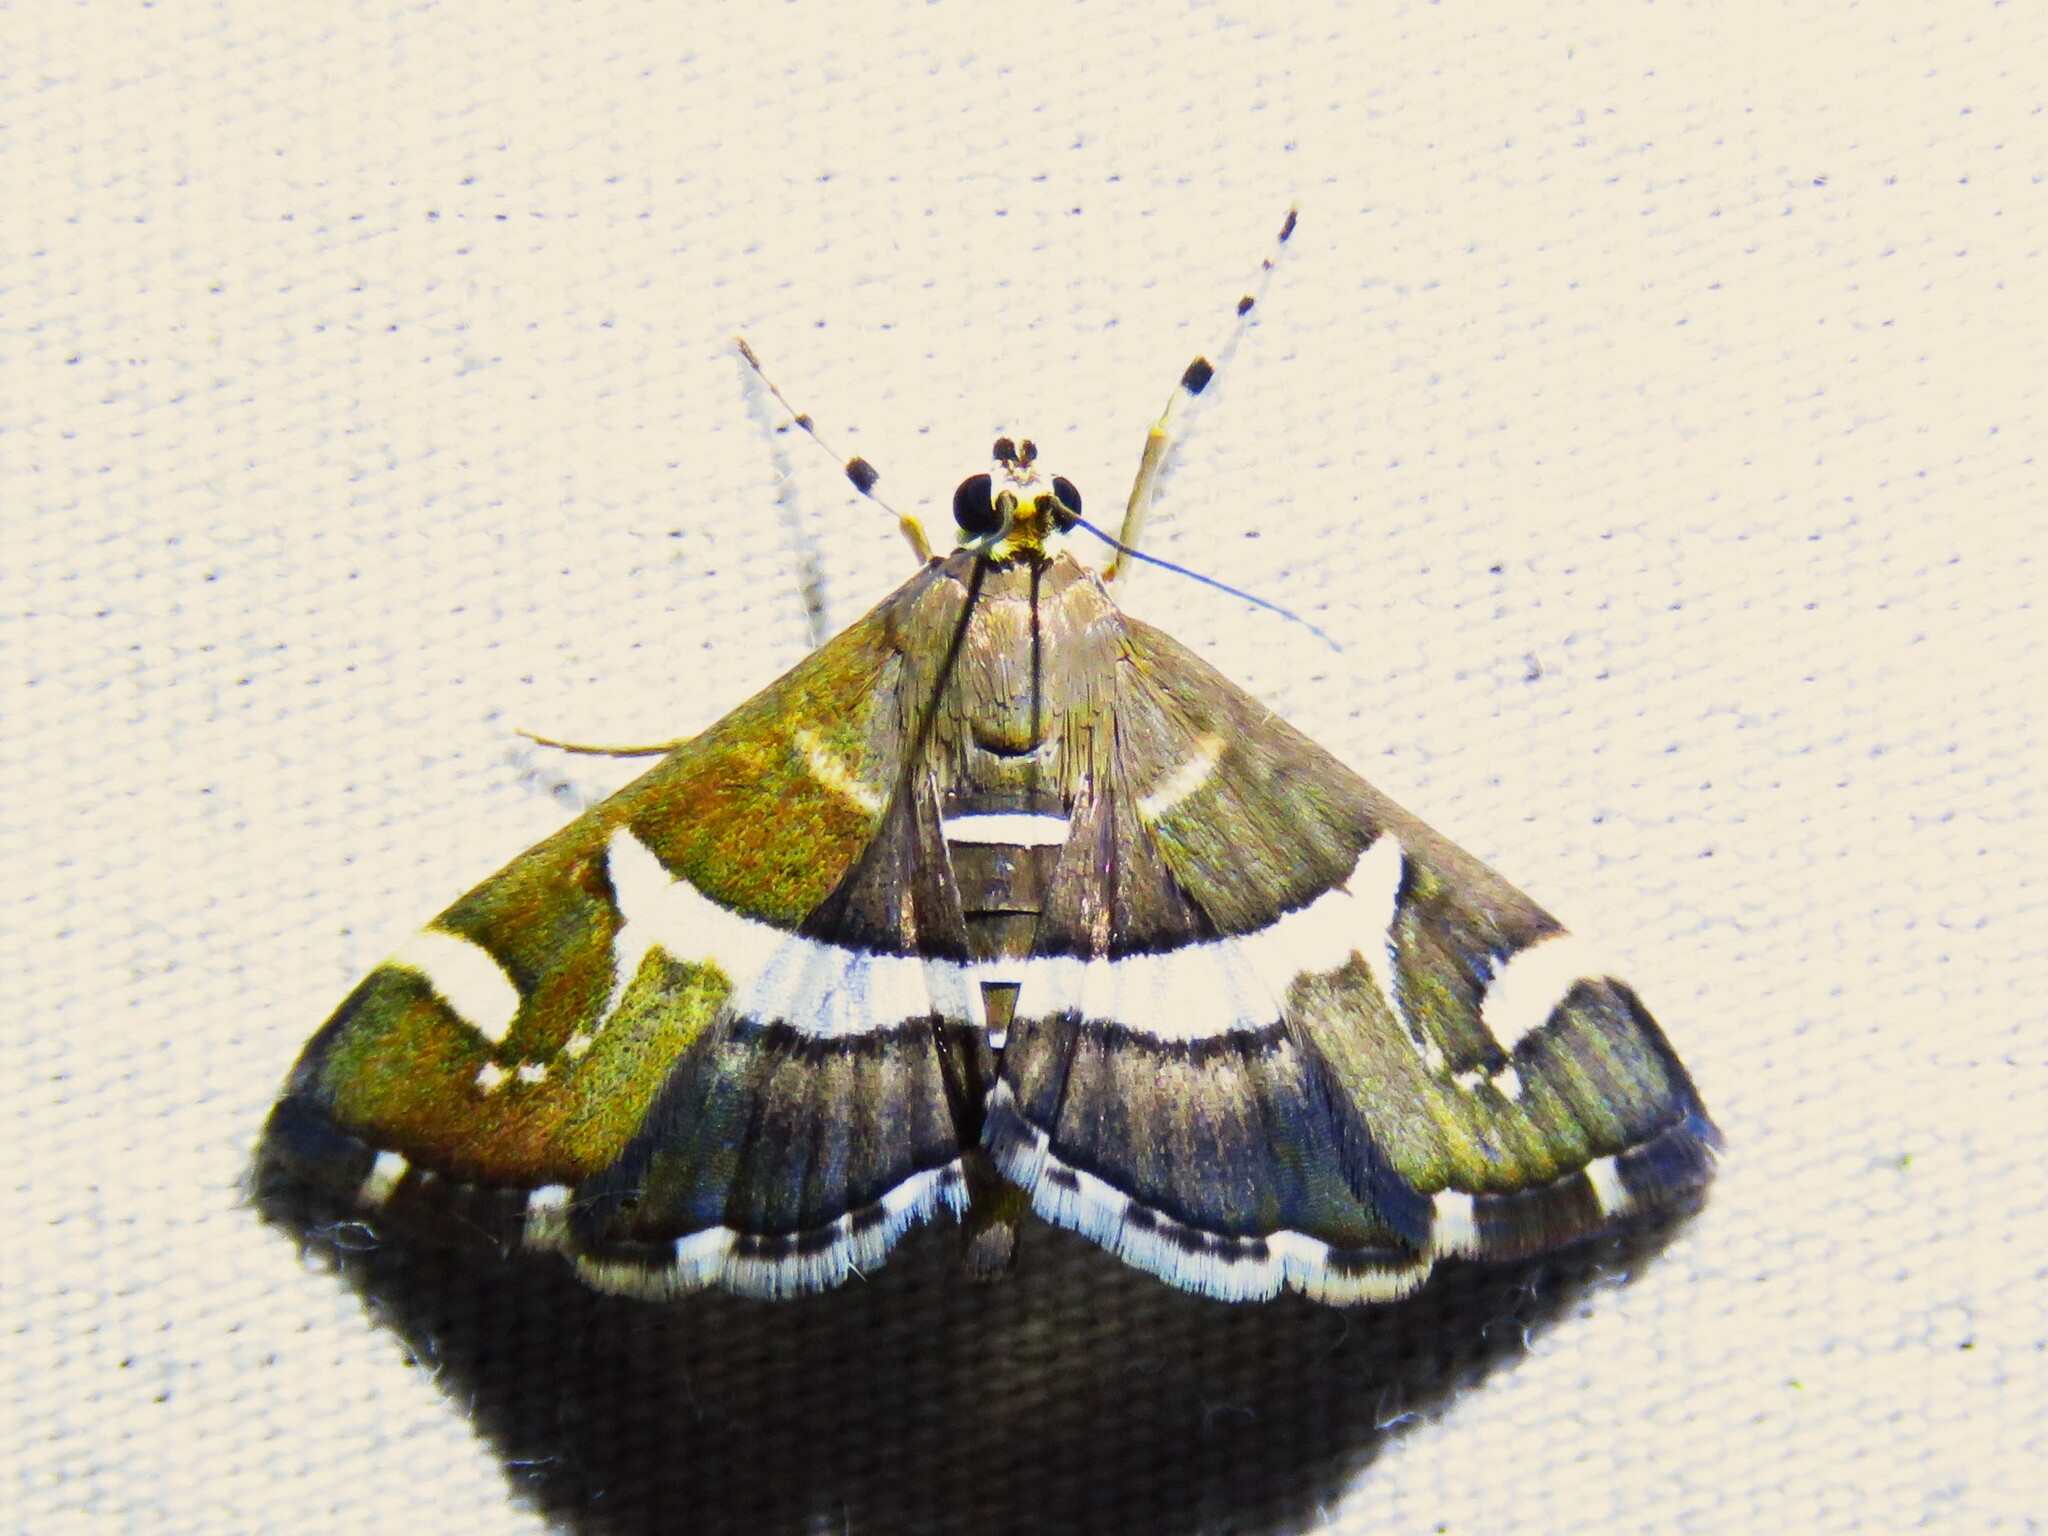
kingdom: Animalia
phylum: Arthropoda
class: Insecta
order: Lepidoptera
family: Crambidae
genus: Spoladea
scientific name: Spoladea recurvalis
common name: Beet webworm moth
